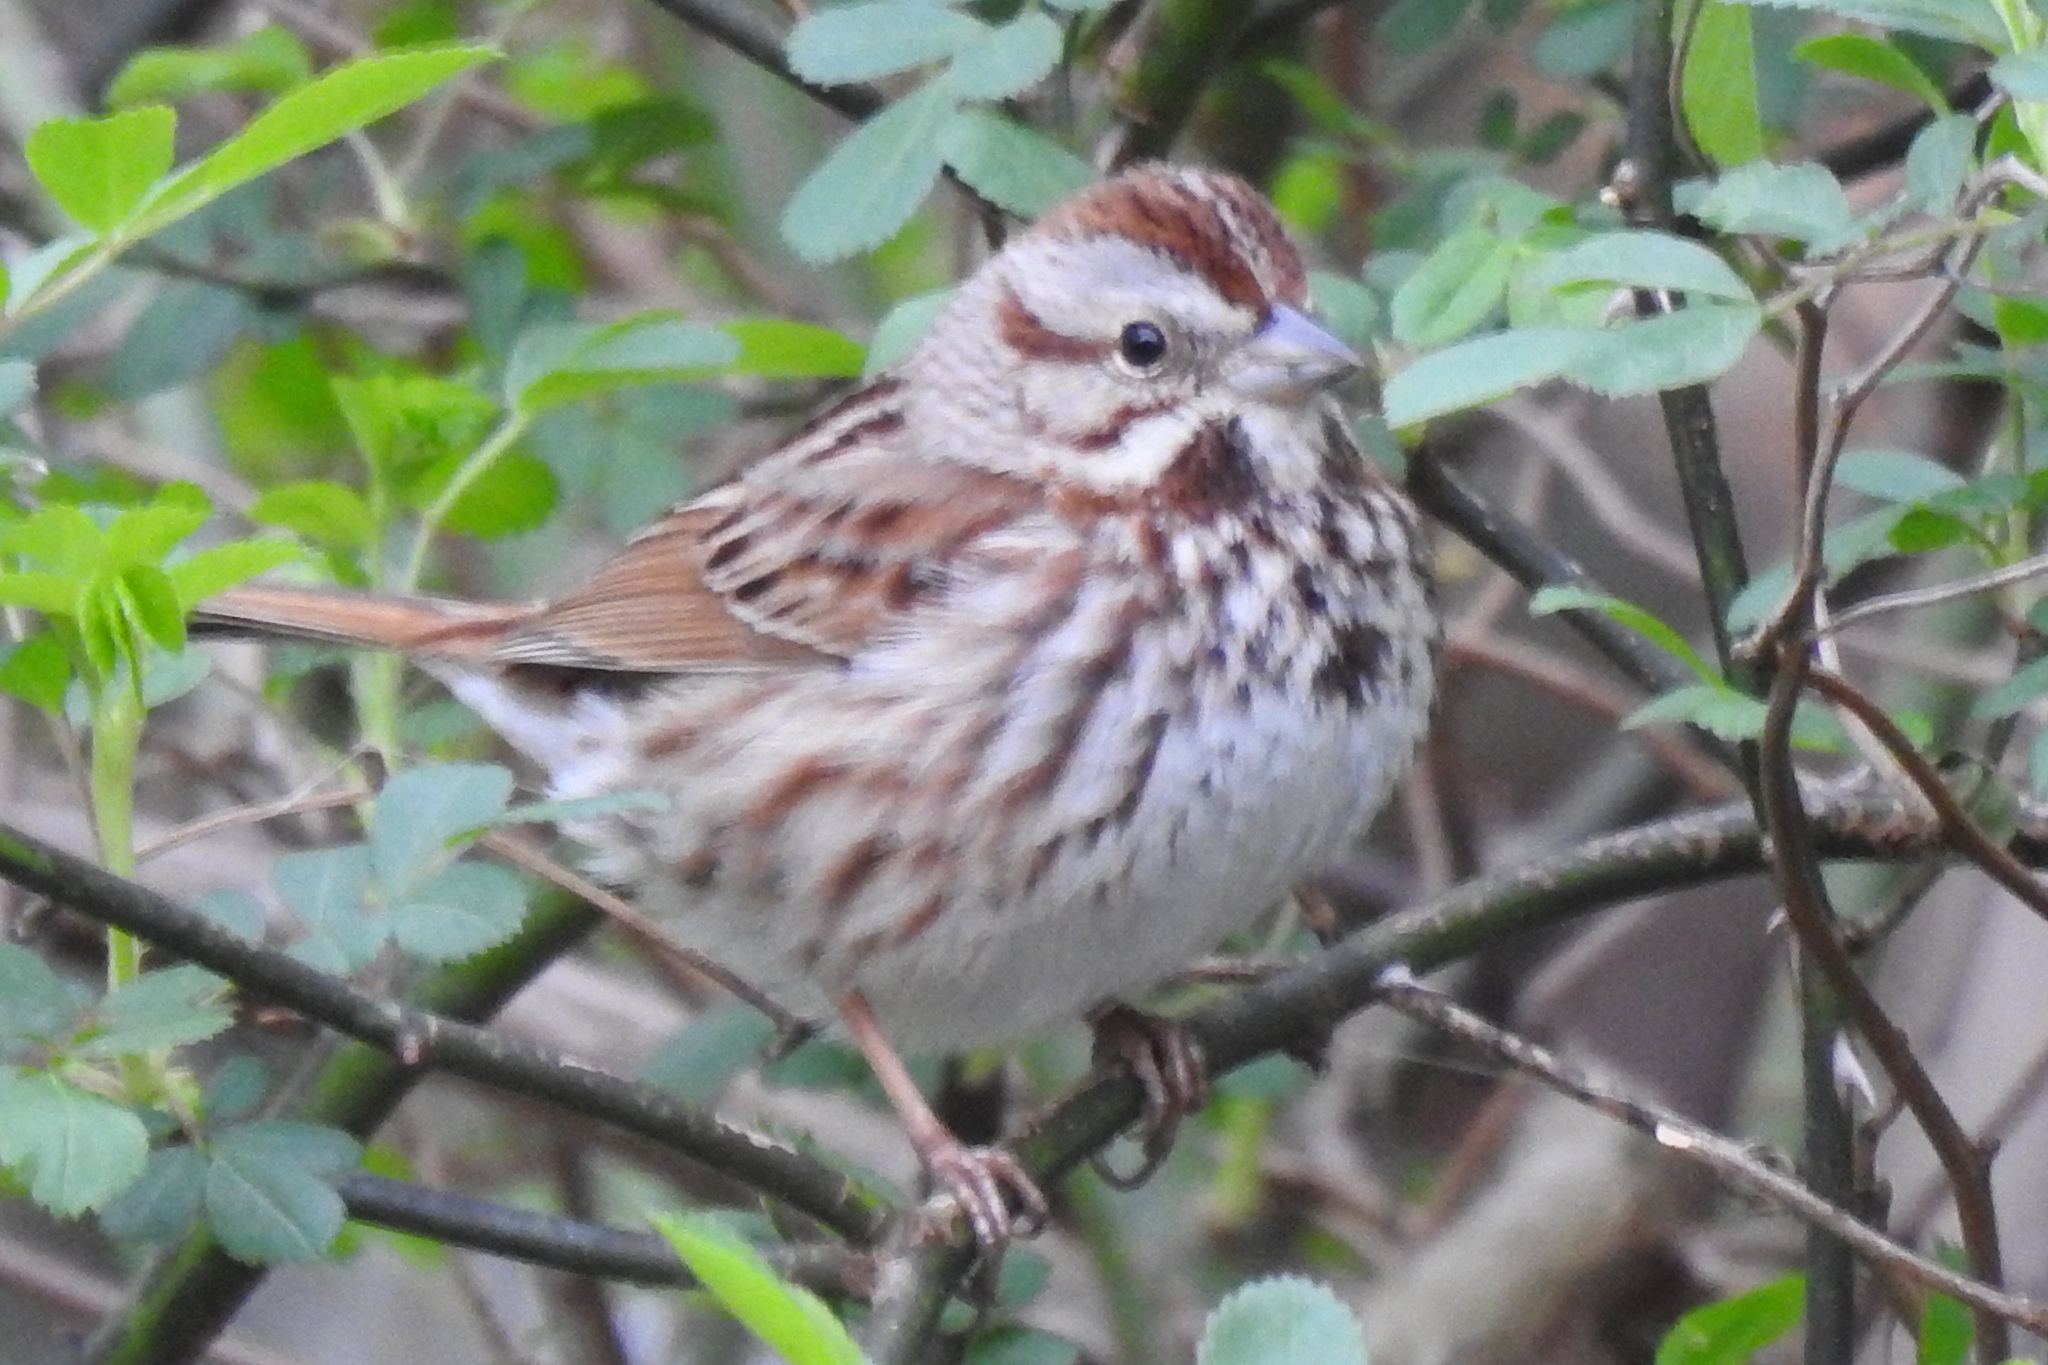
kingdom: Animalia
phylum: Chordata
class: Aves
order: Passeriformes
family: Passerellidae
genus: Melospiza
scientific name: Melospiza melodia
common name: Song sparrow
